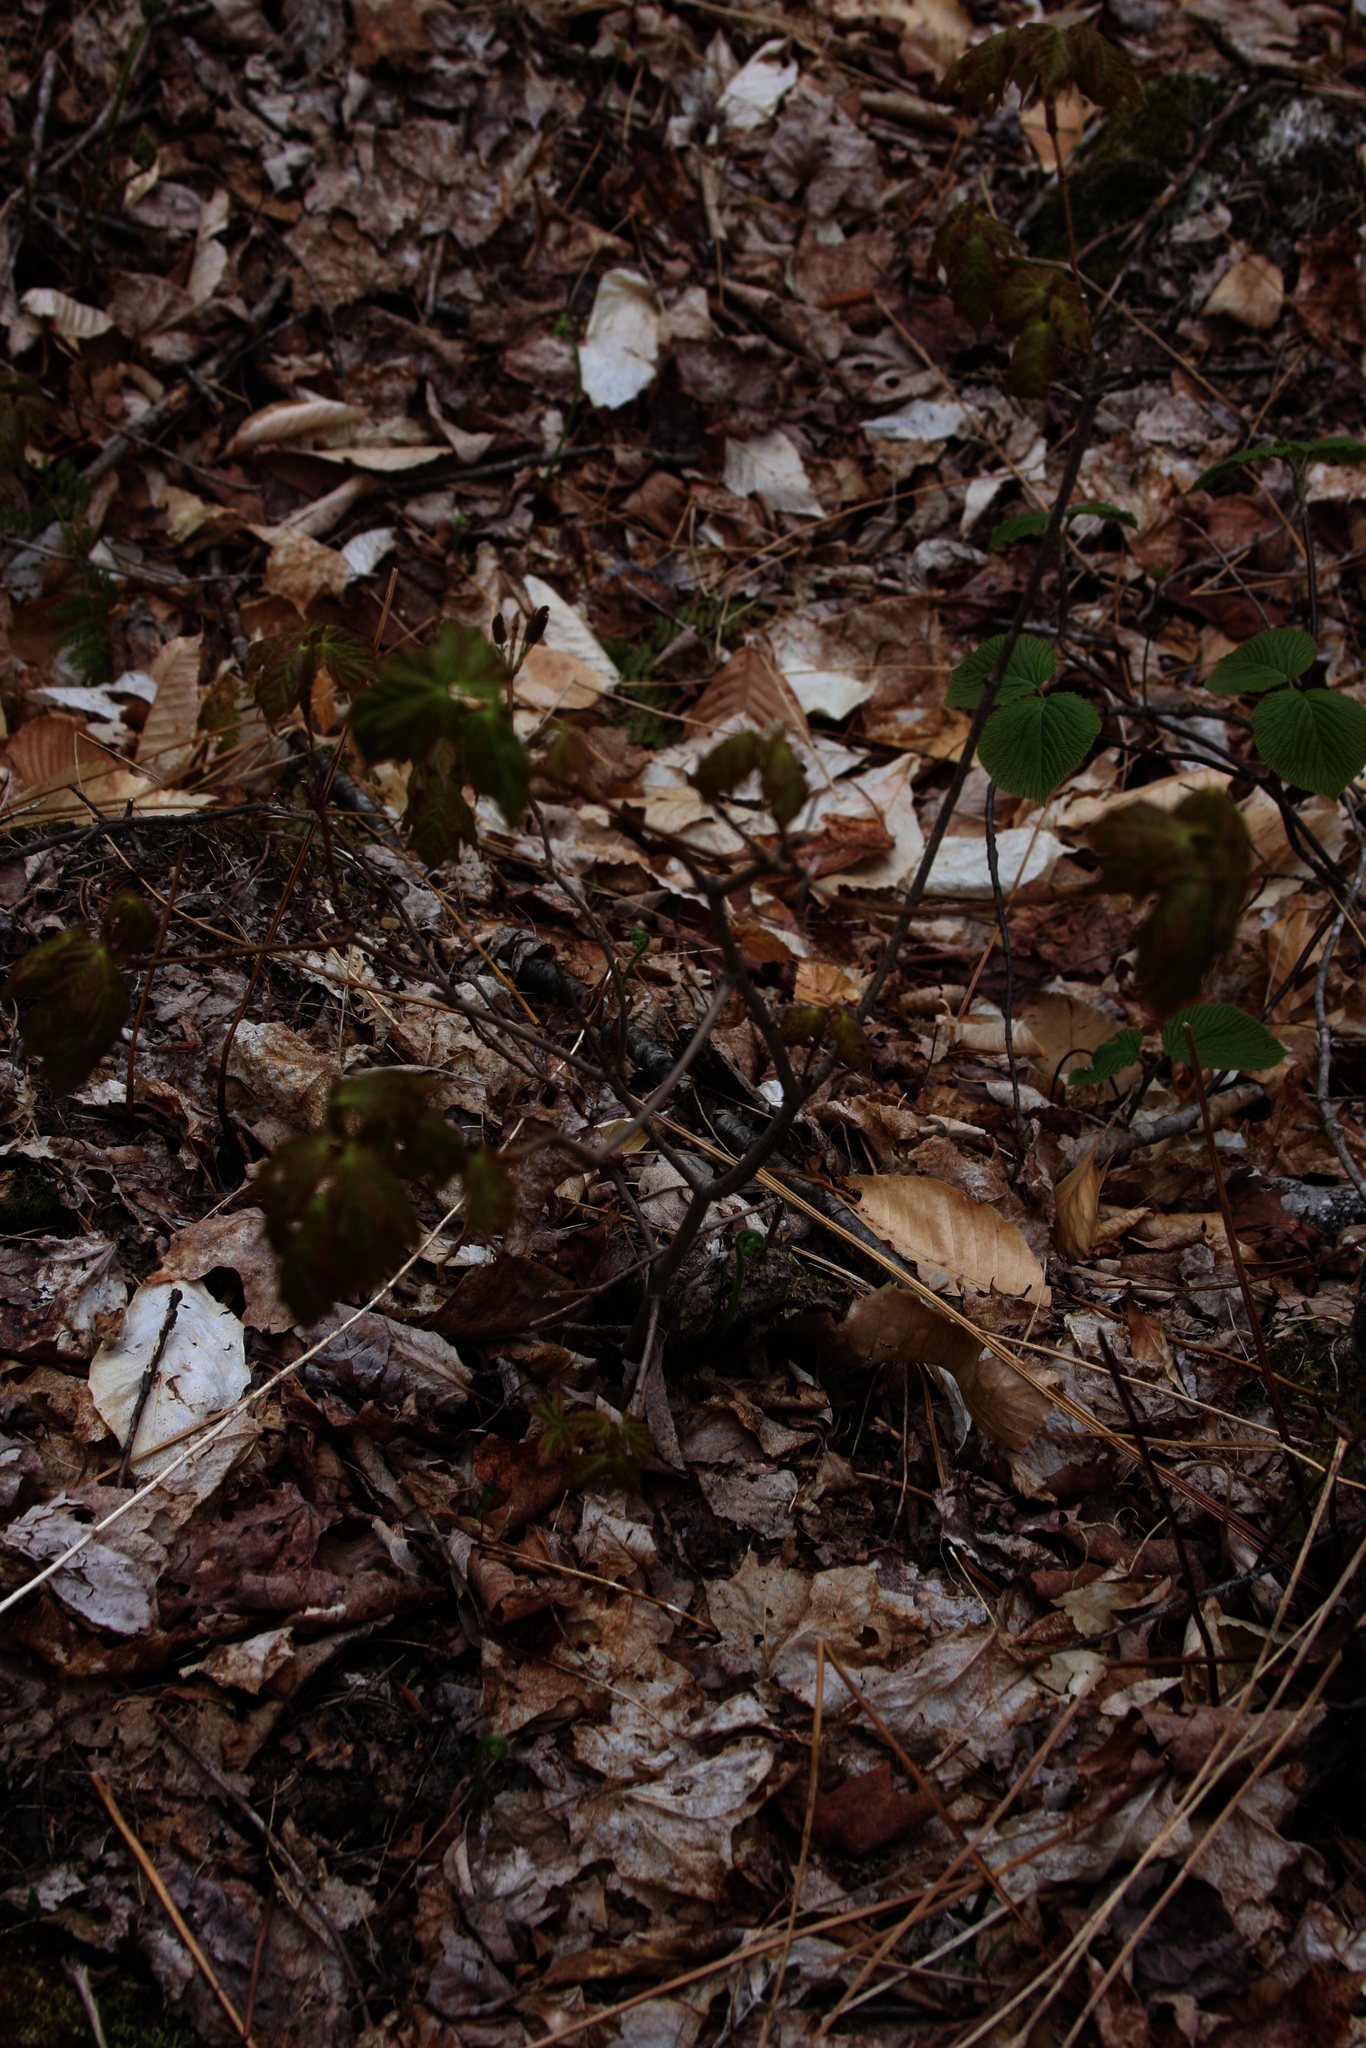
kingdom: Plantae
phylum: Tracheophyta
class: Magnoliopsida
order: Sapindales
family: Sapindaceae
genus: Acer
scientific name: Acer rubrum
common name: Red maple
